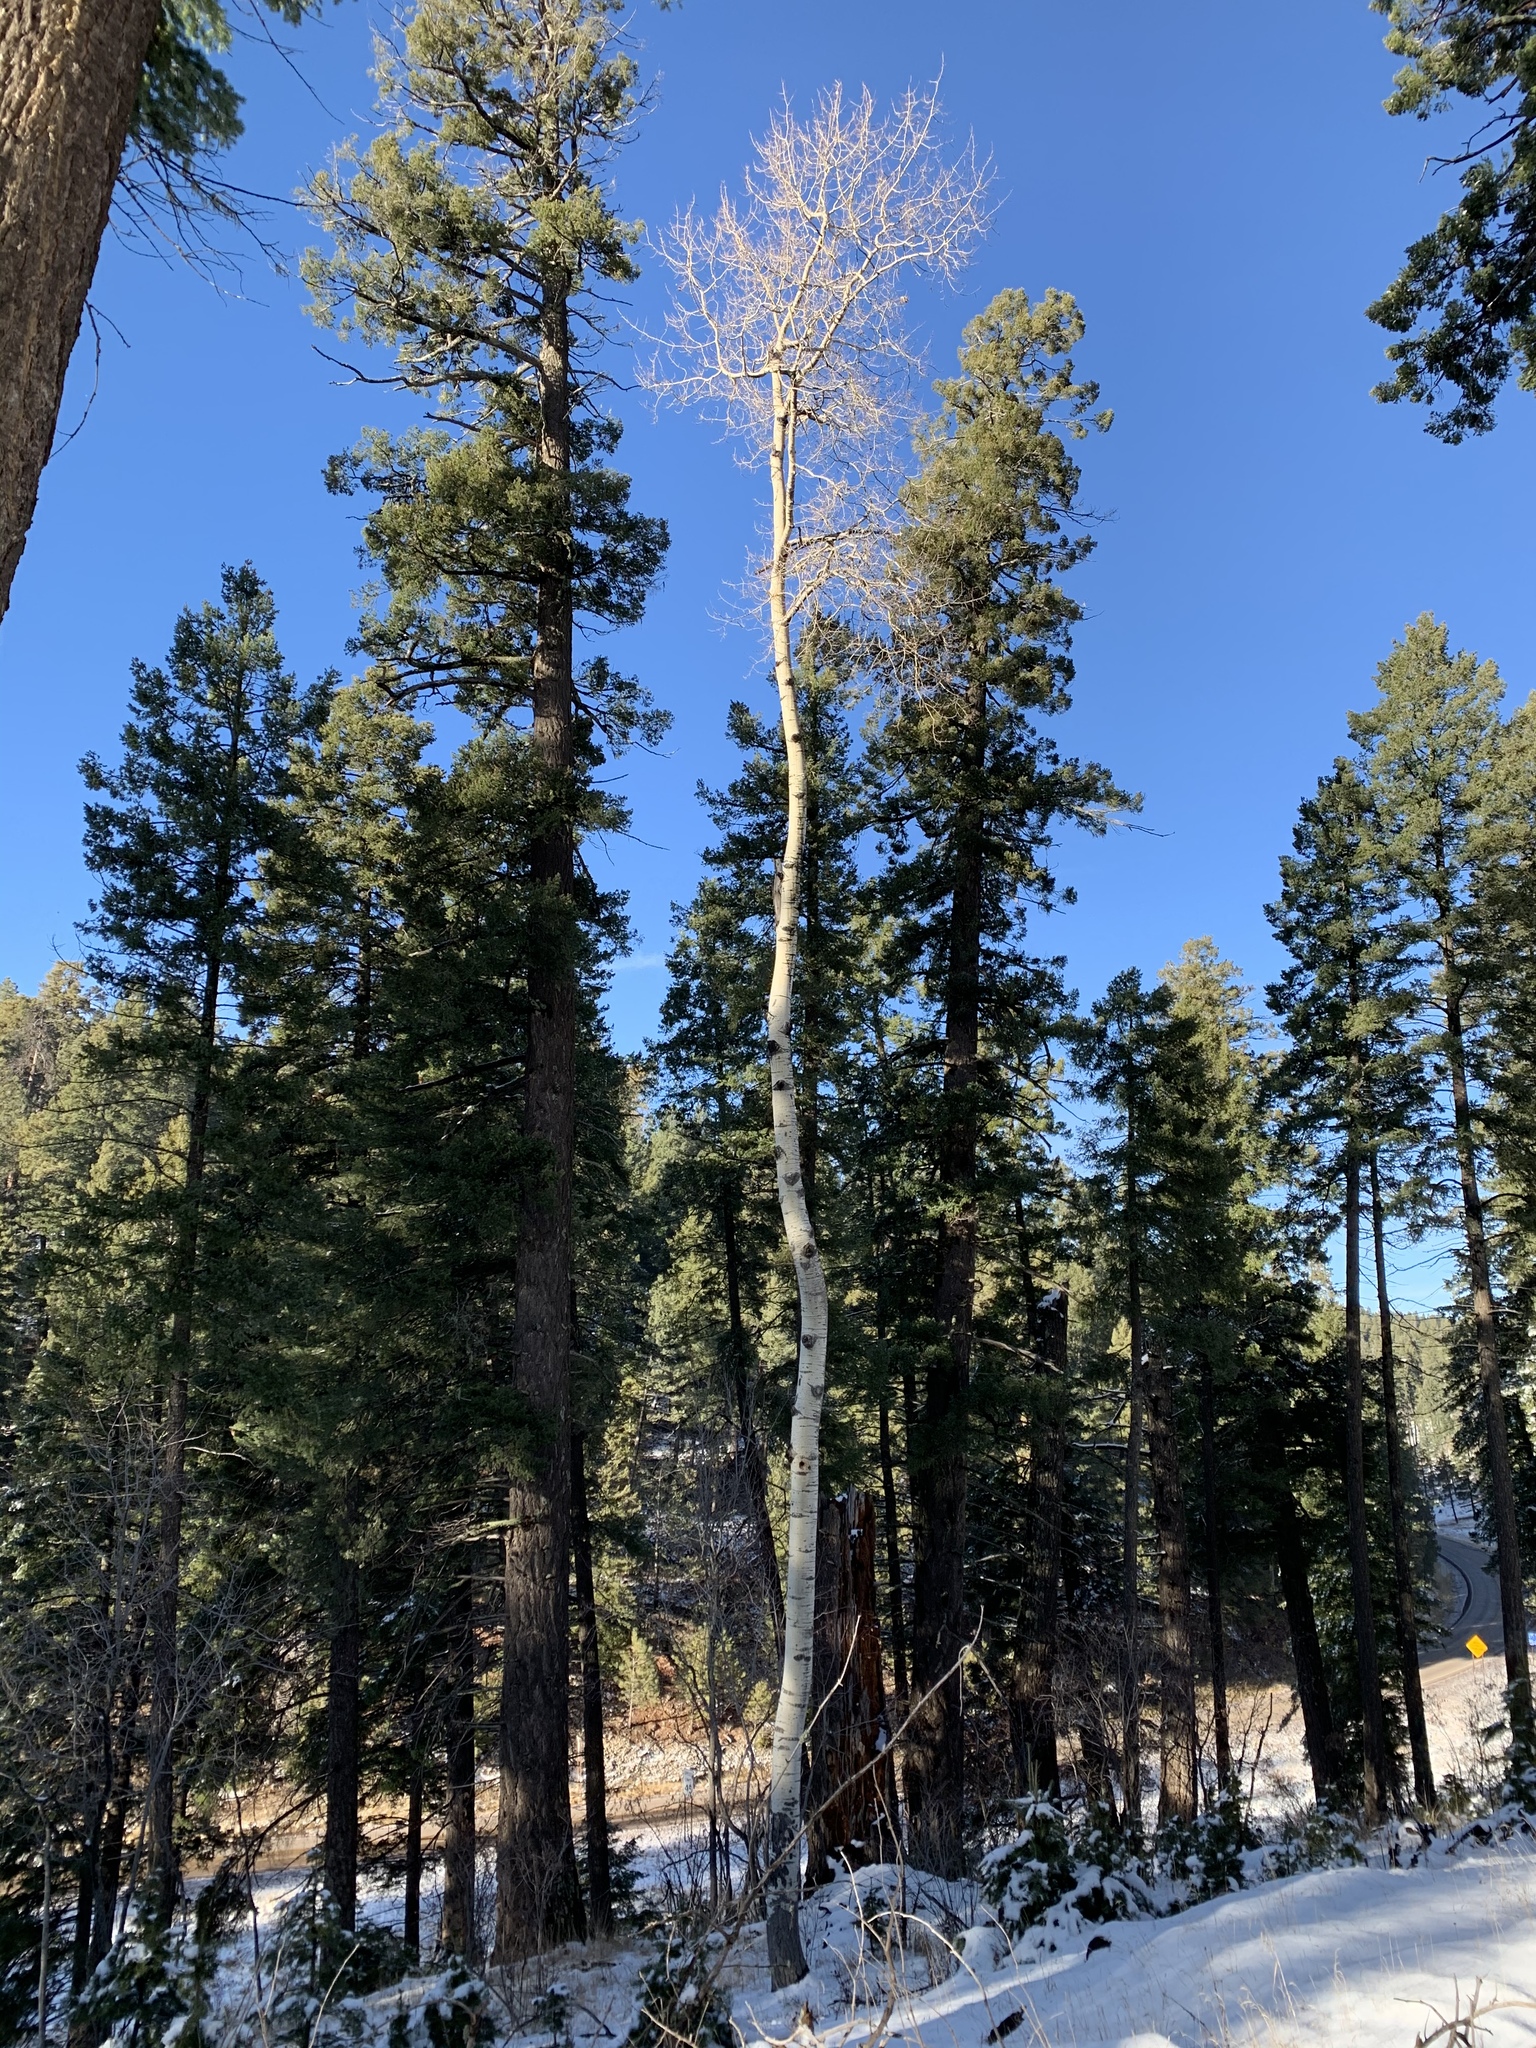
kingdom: Plantae
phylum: Tracheophyta
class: Magnoliopsida
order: Malpighiales
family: Salicaceae
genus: Populus
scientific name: Populus tremuloides
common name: Quaking aspen
